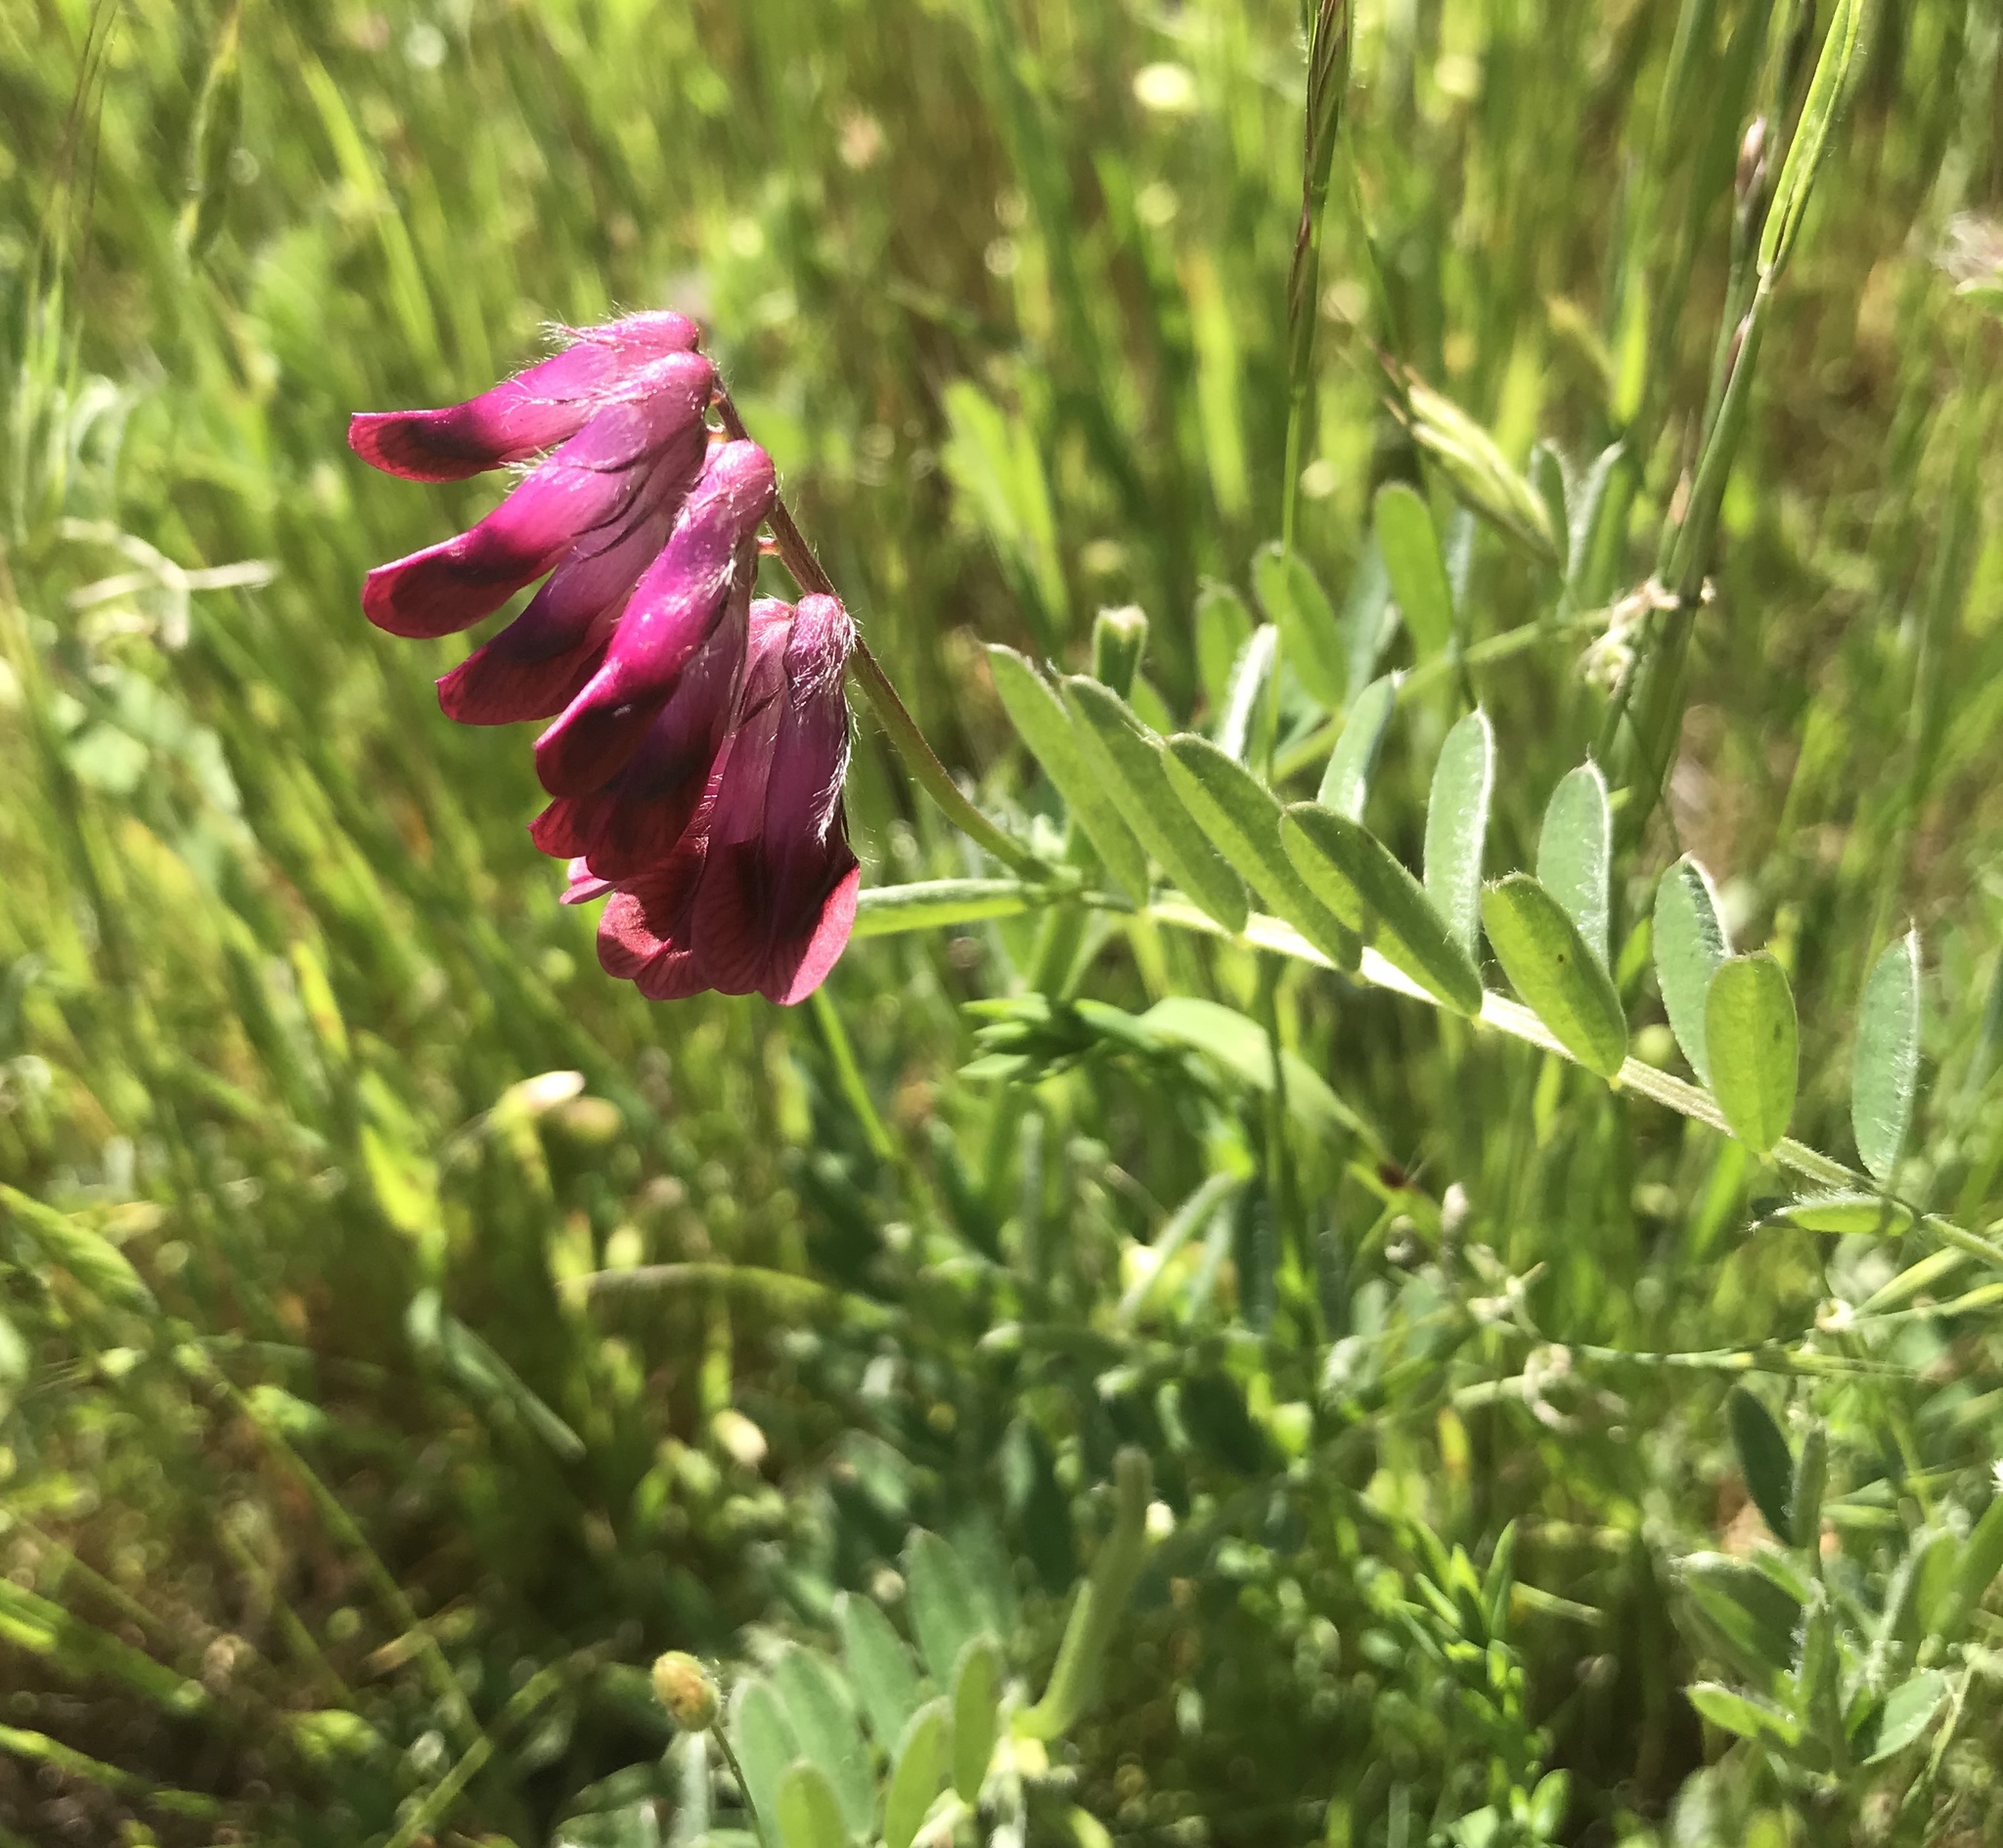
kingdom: Plantae
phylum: Tracheophyta
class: Magnoliopsida
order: Fabales
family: Fabaceae
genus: Vicia
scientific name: Vicia benghalensis
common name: Purple vetch
